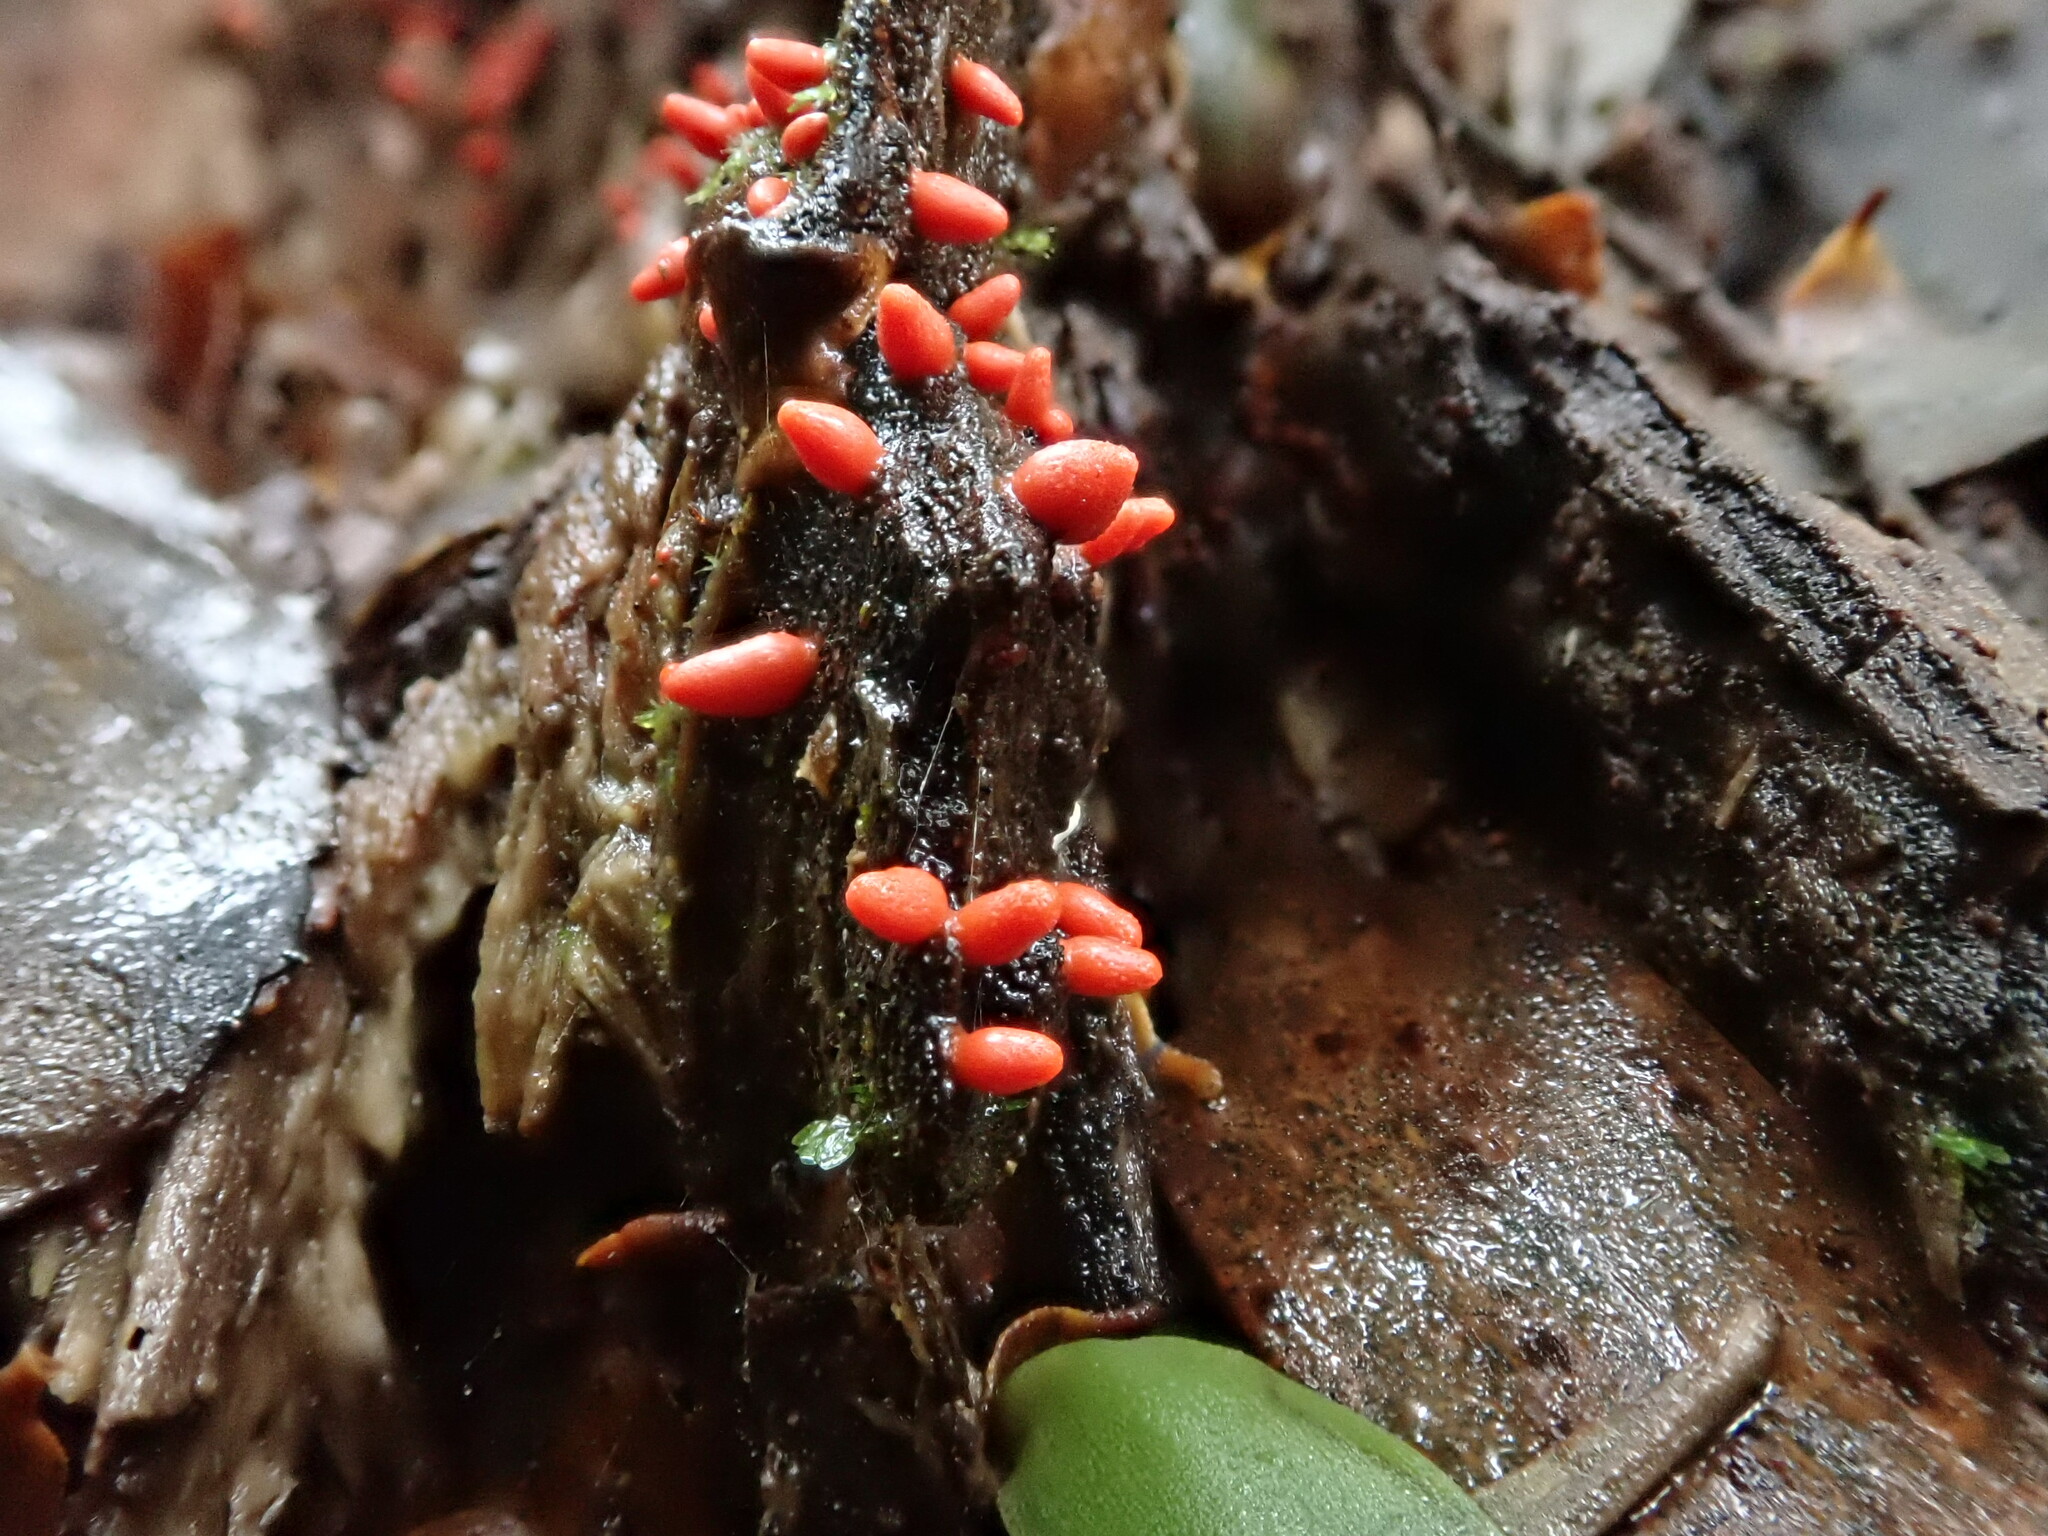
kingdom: Protozoa
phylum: Mycetozoa
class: Myxomycetes
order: Cribrariales
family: Tubiferaceae
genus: Lycogala
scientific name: Lycogala conicum
